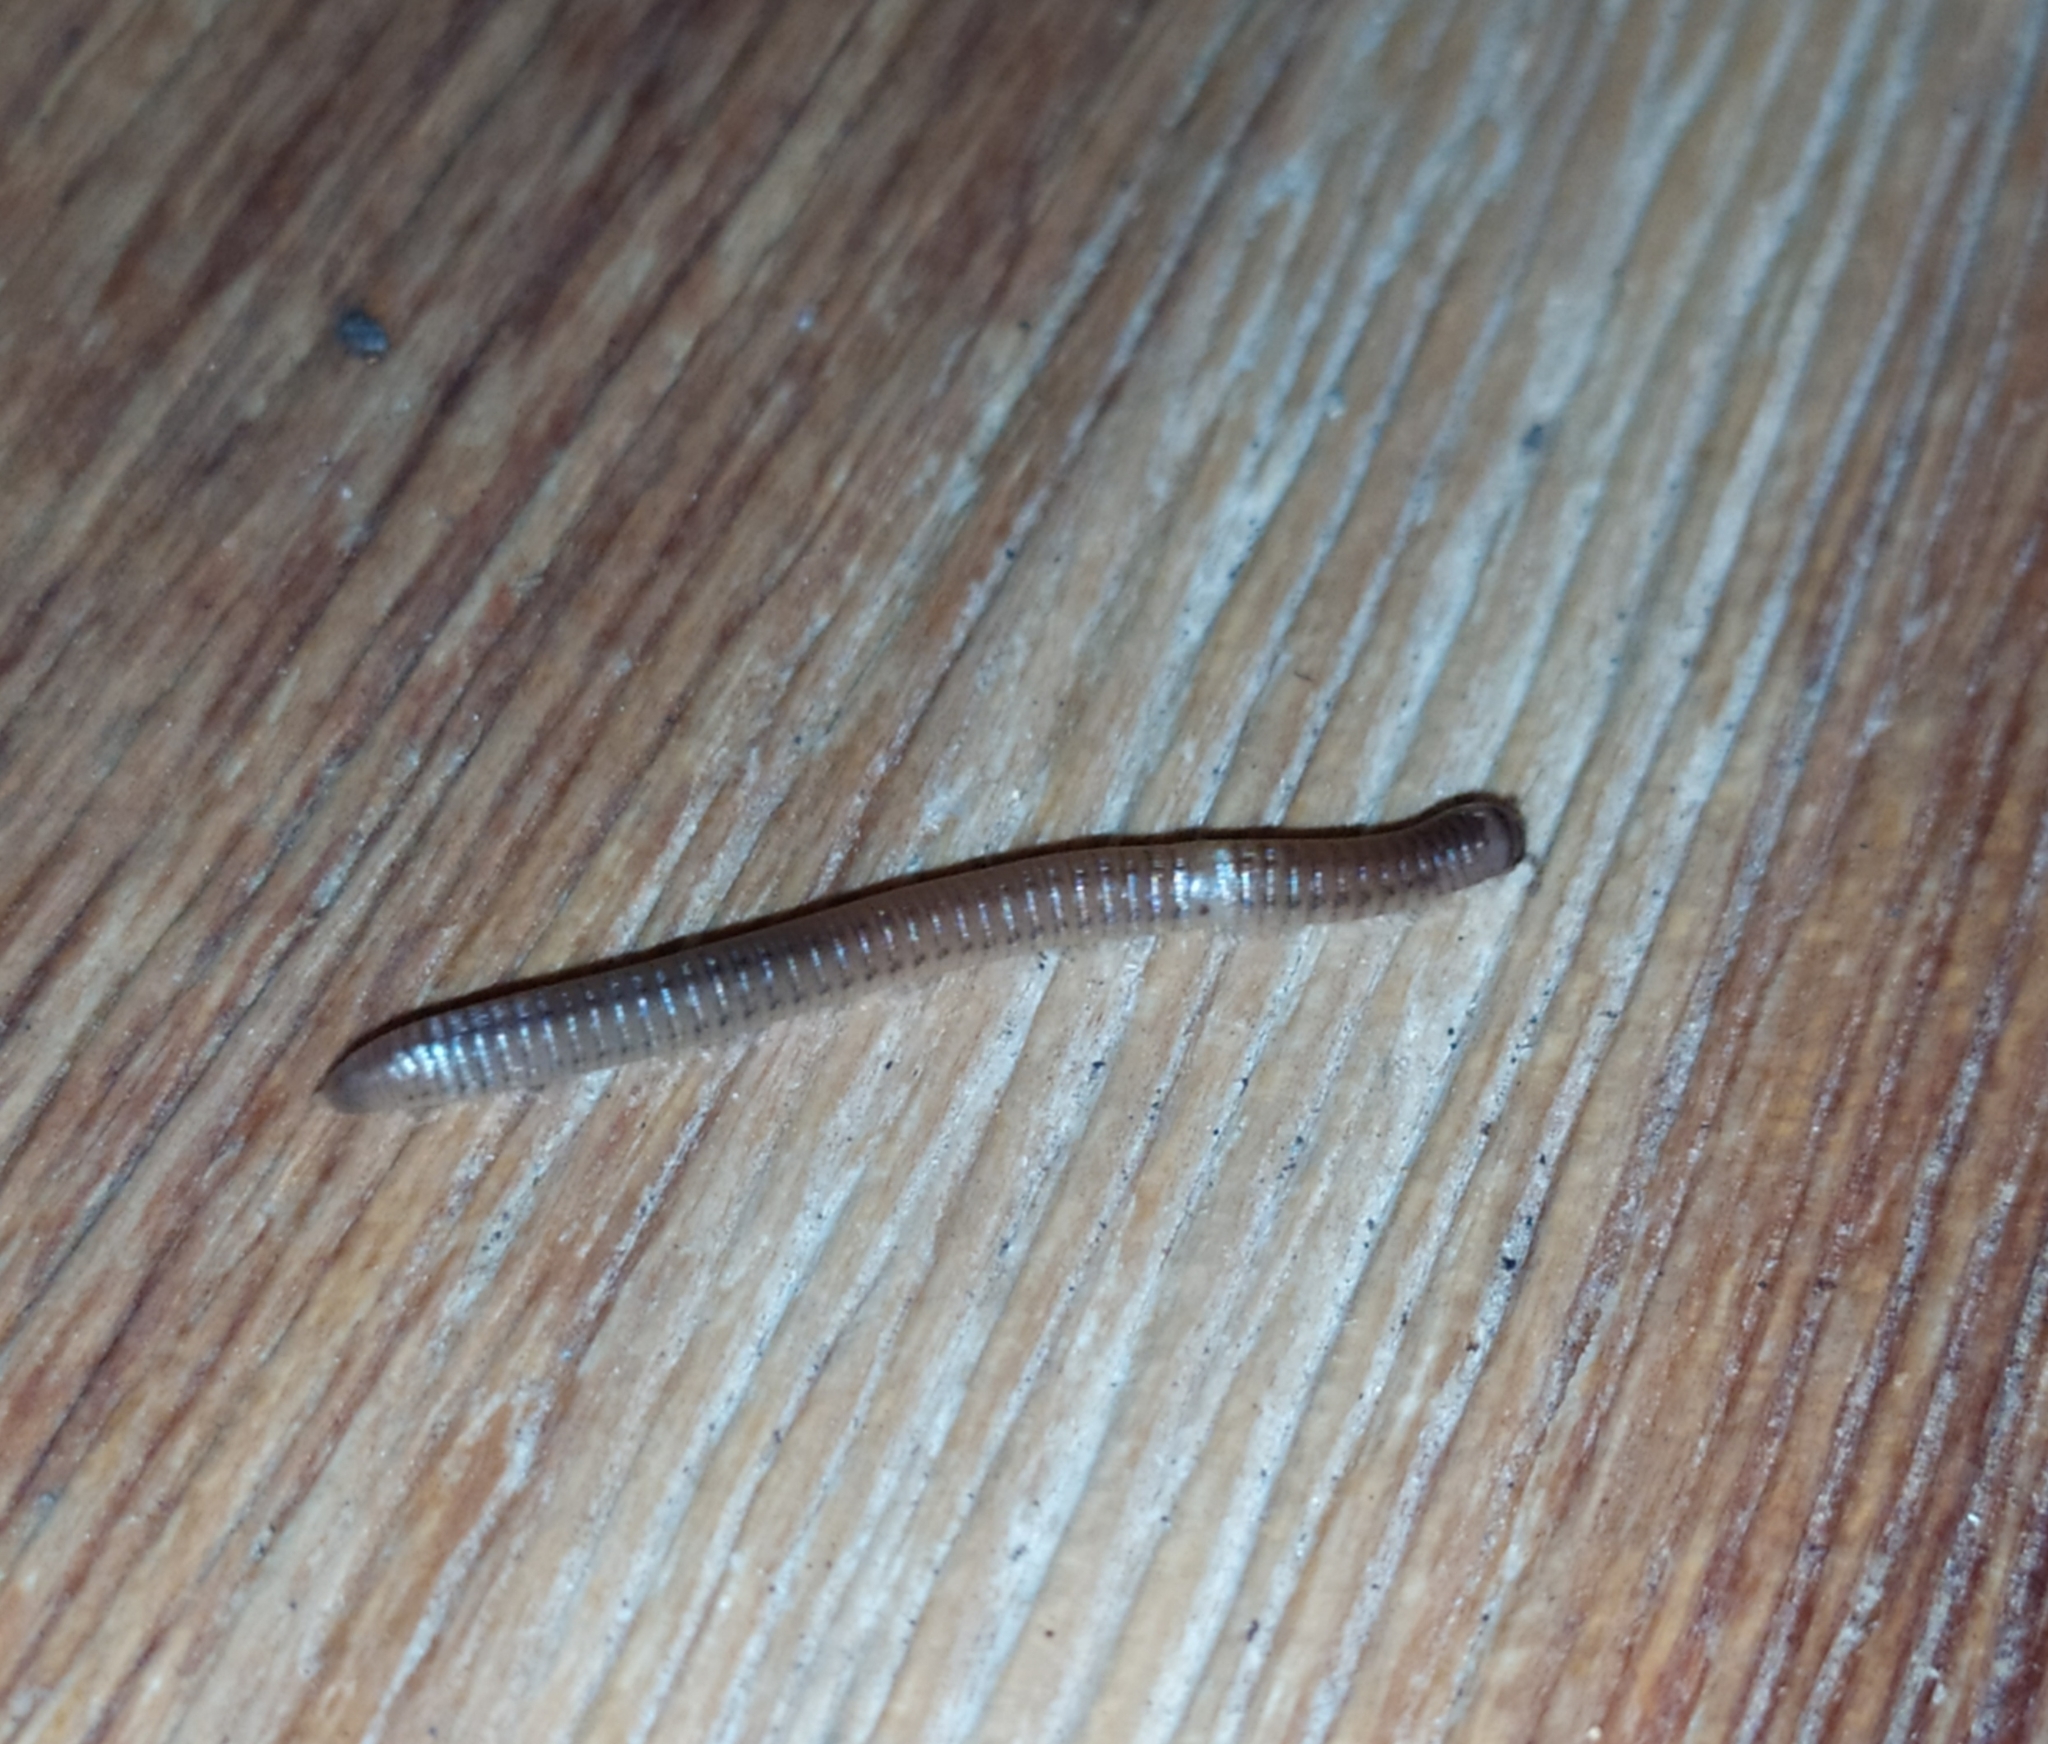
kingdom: Animalia
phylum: Arthropoda
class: Diplopoda
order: Julida
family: Julidae
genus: Cylindroiulus
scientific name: Cylindroiulus punctatus
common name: Blunt-tailed millipede
